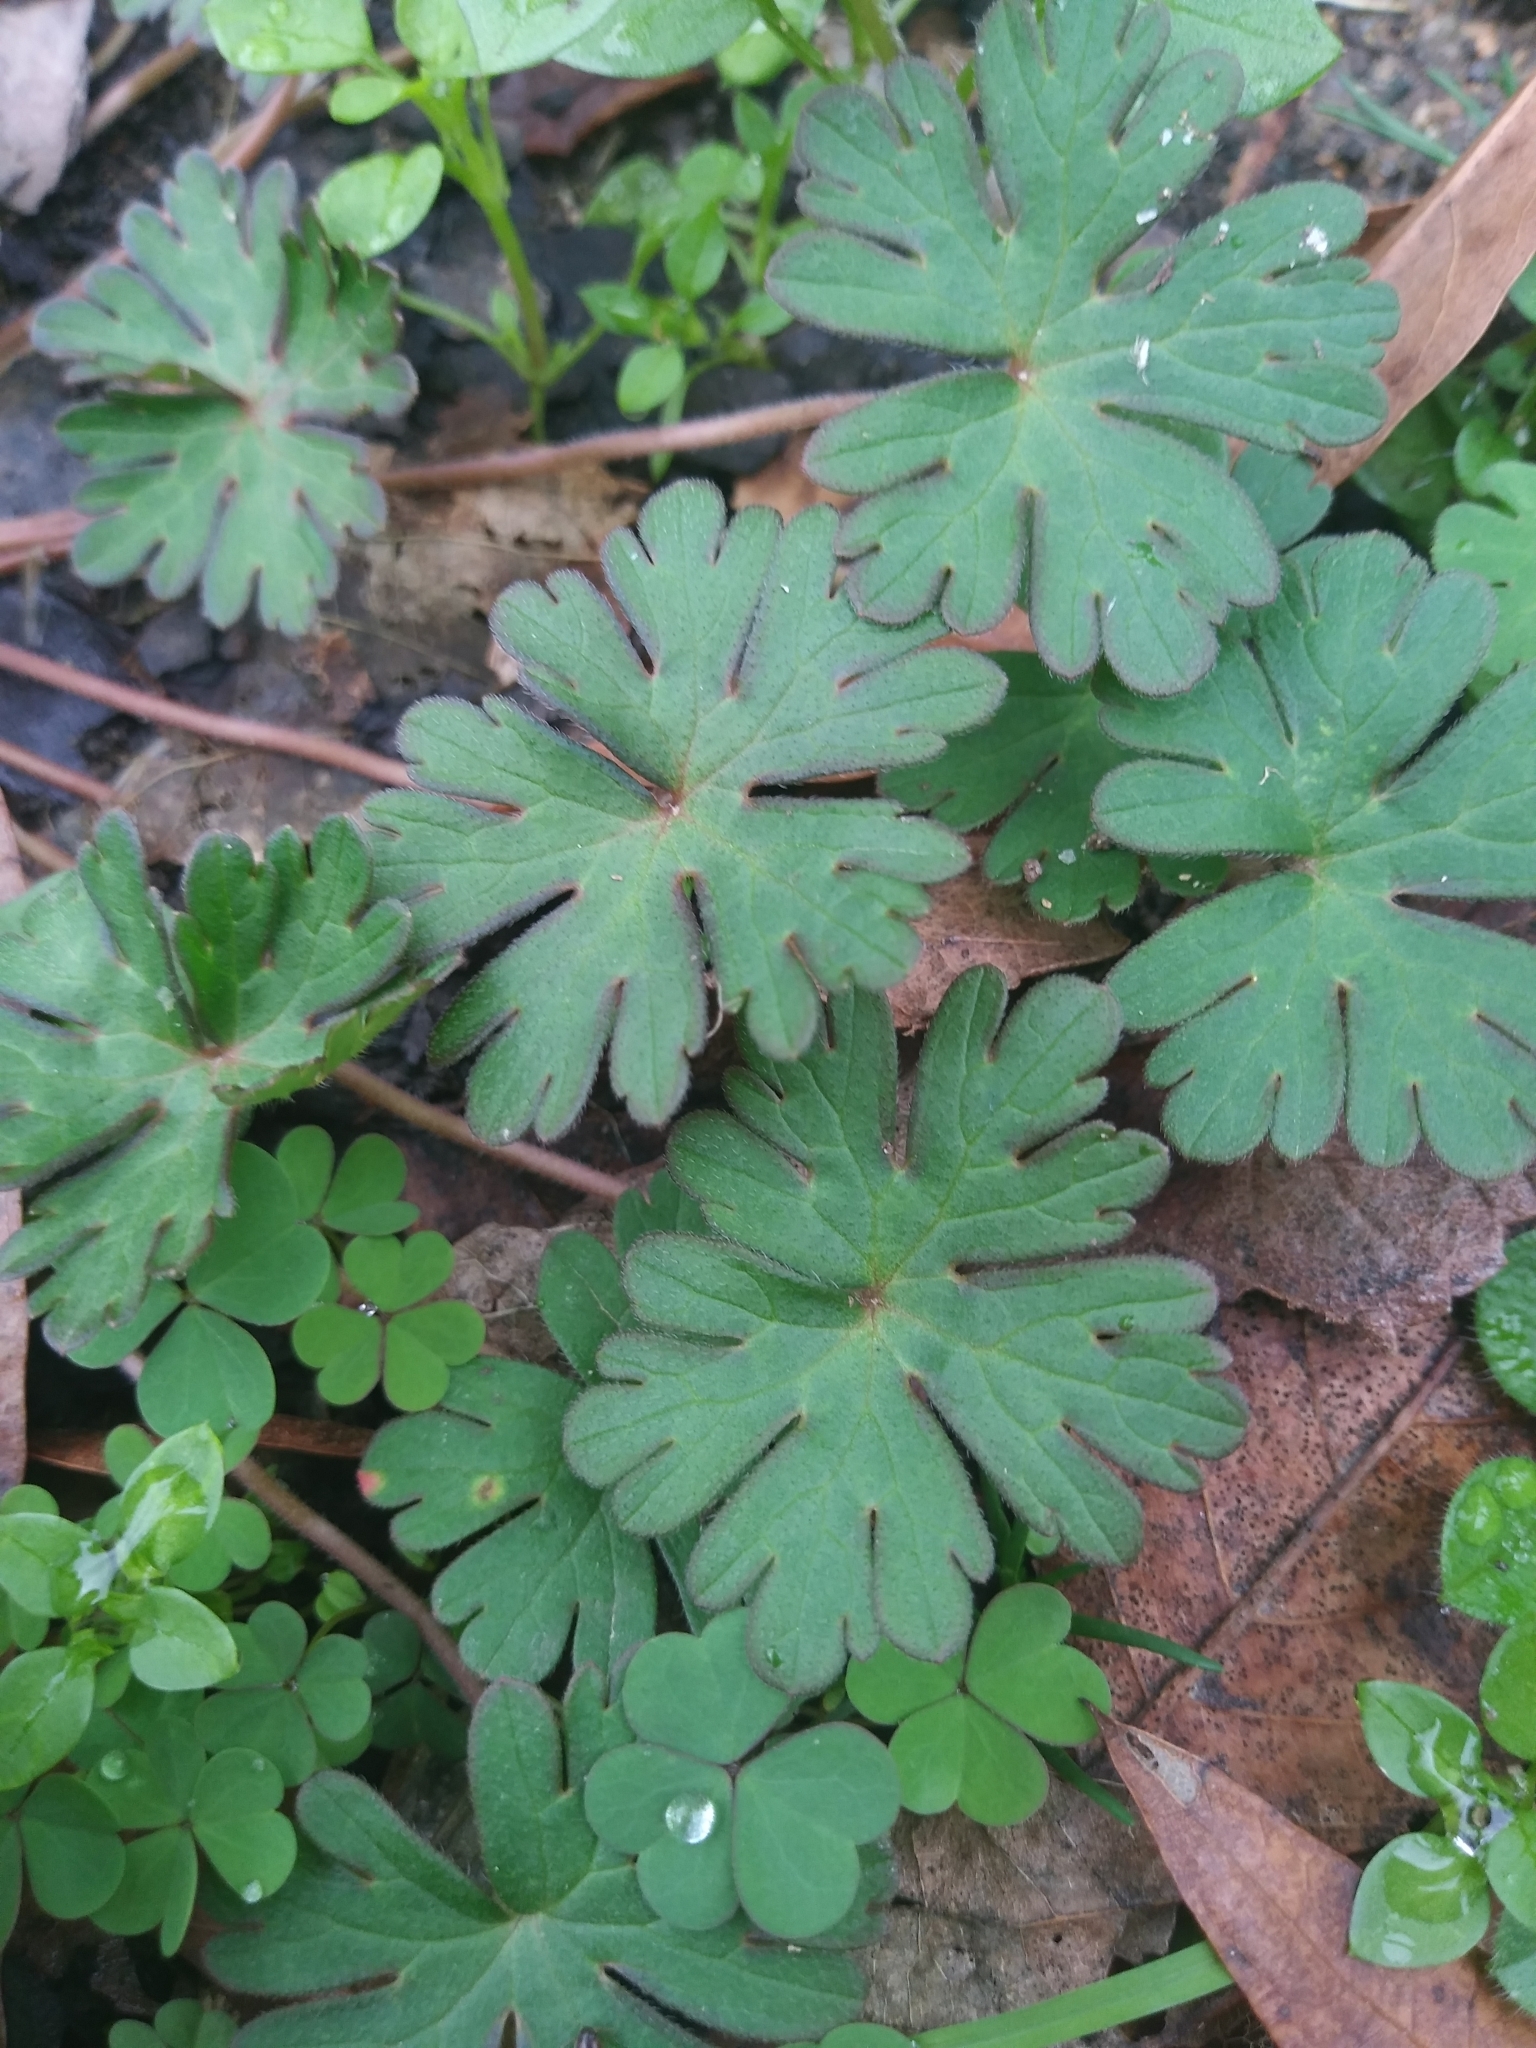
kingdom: Plantae
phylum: Tracheophyta
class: Magnoliopsida
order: Geraniales
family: Geraniaceae
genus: Geranium
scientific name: Geranium carolinianum
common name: Carolina crane's-bill
